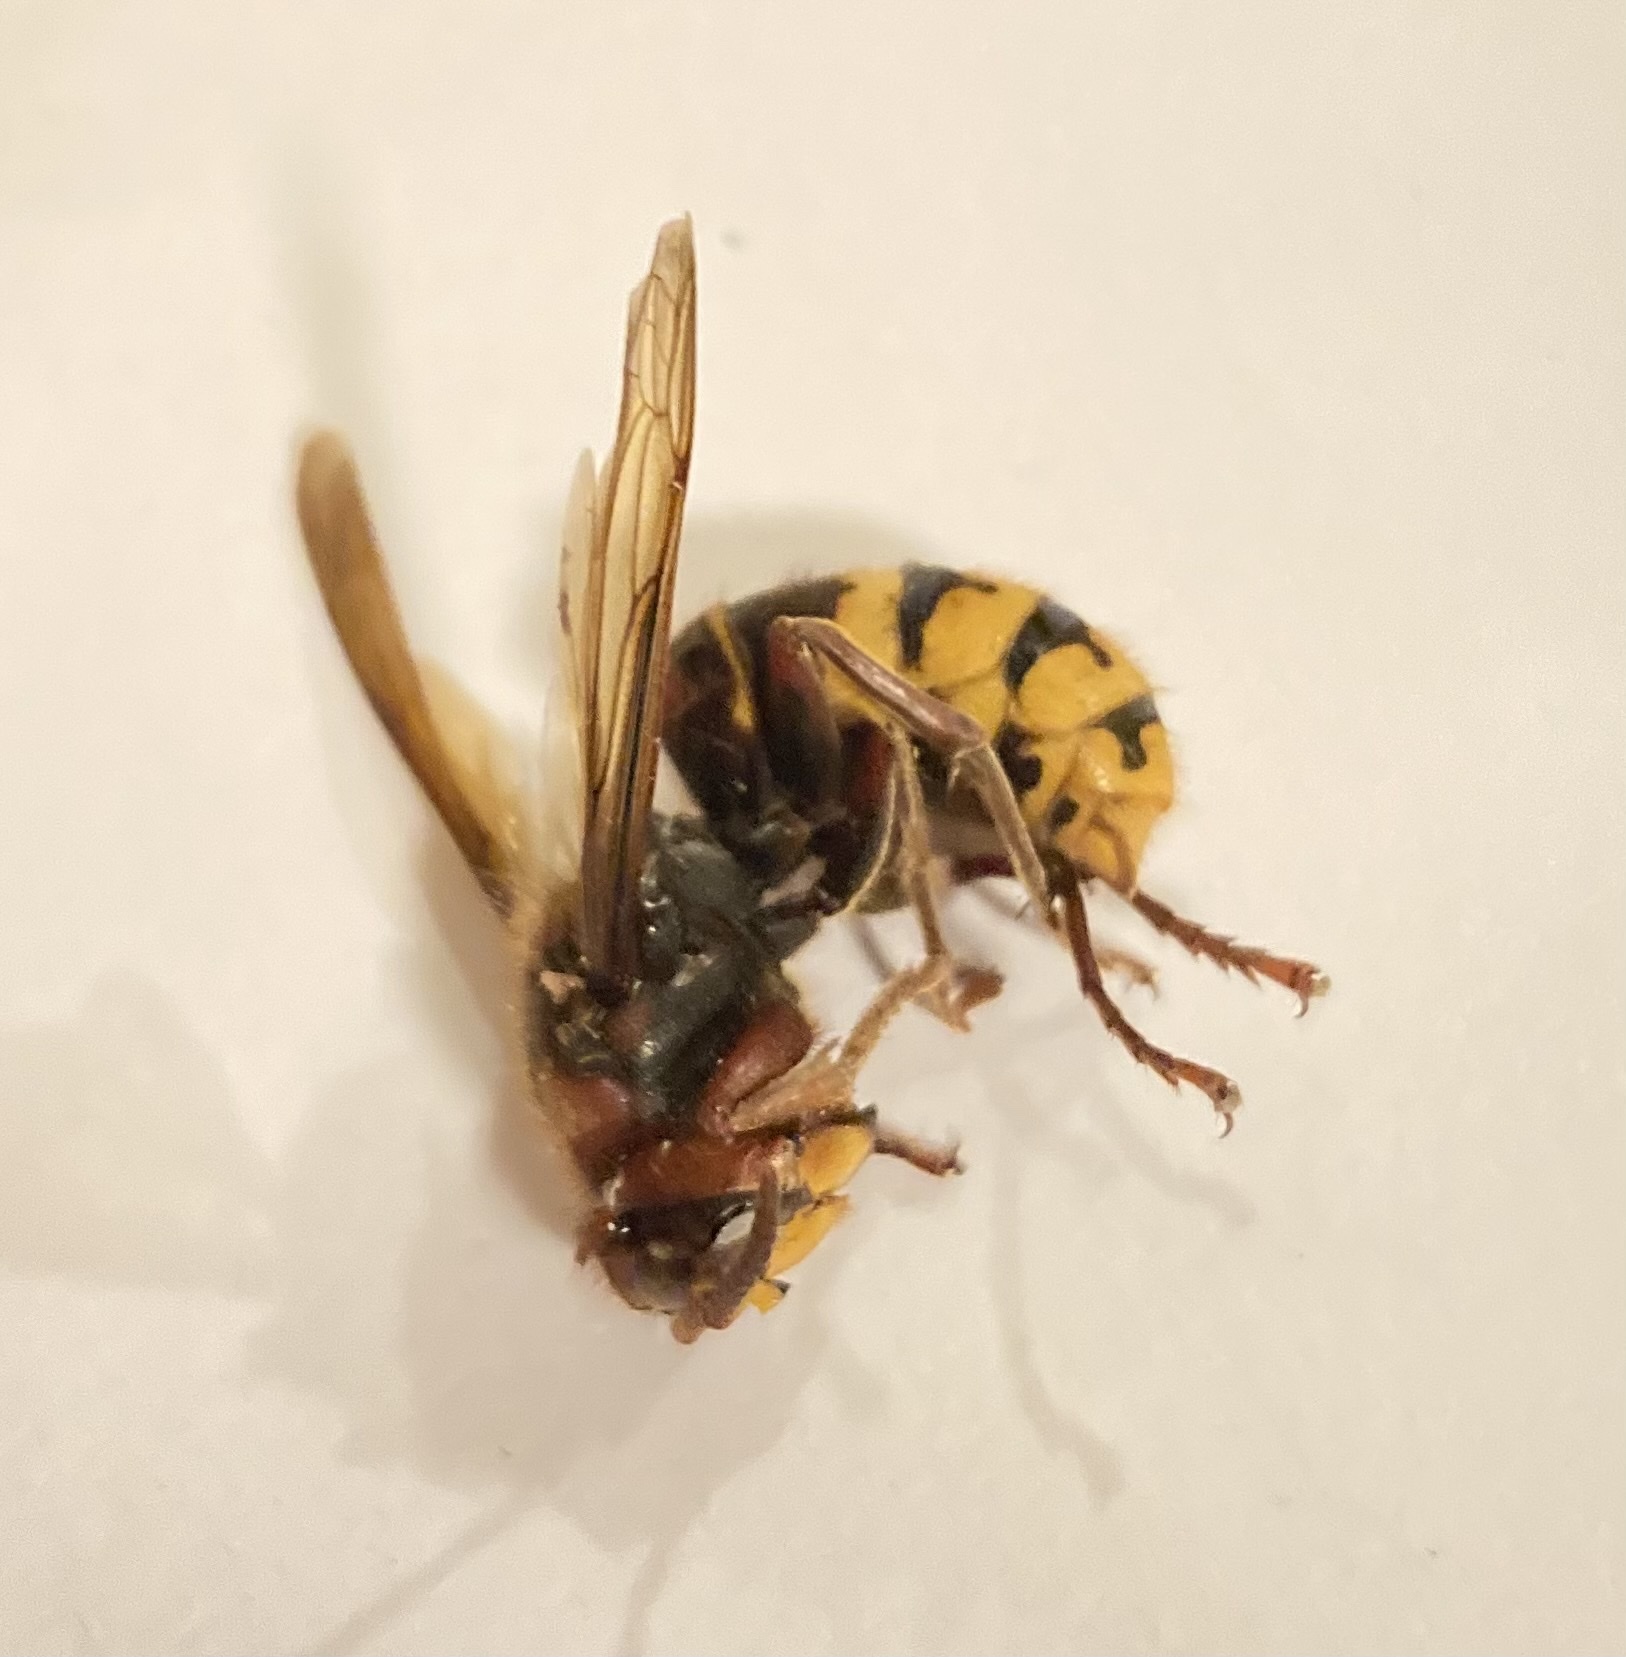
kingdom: Animalia
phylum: Arthropoda
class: Insecta
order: Hymenoptera
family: Vespidae
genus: Vespa
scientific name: Vespa crabro
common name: Hornet
